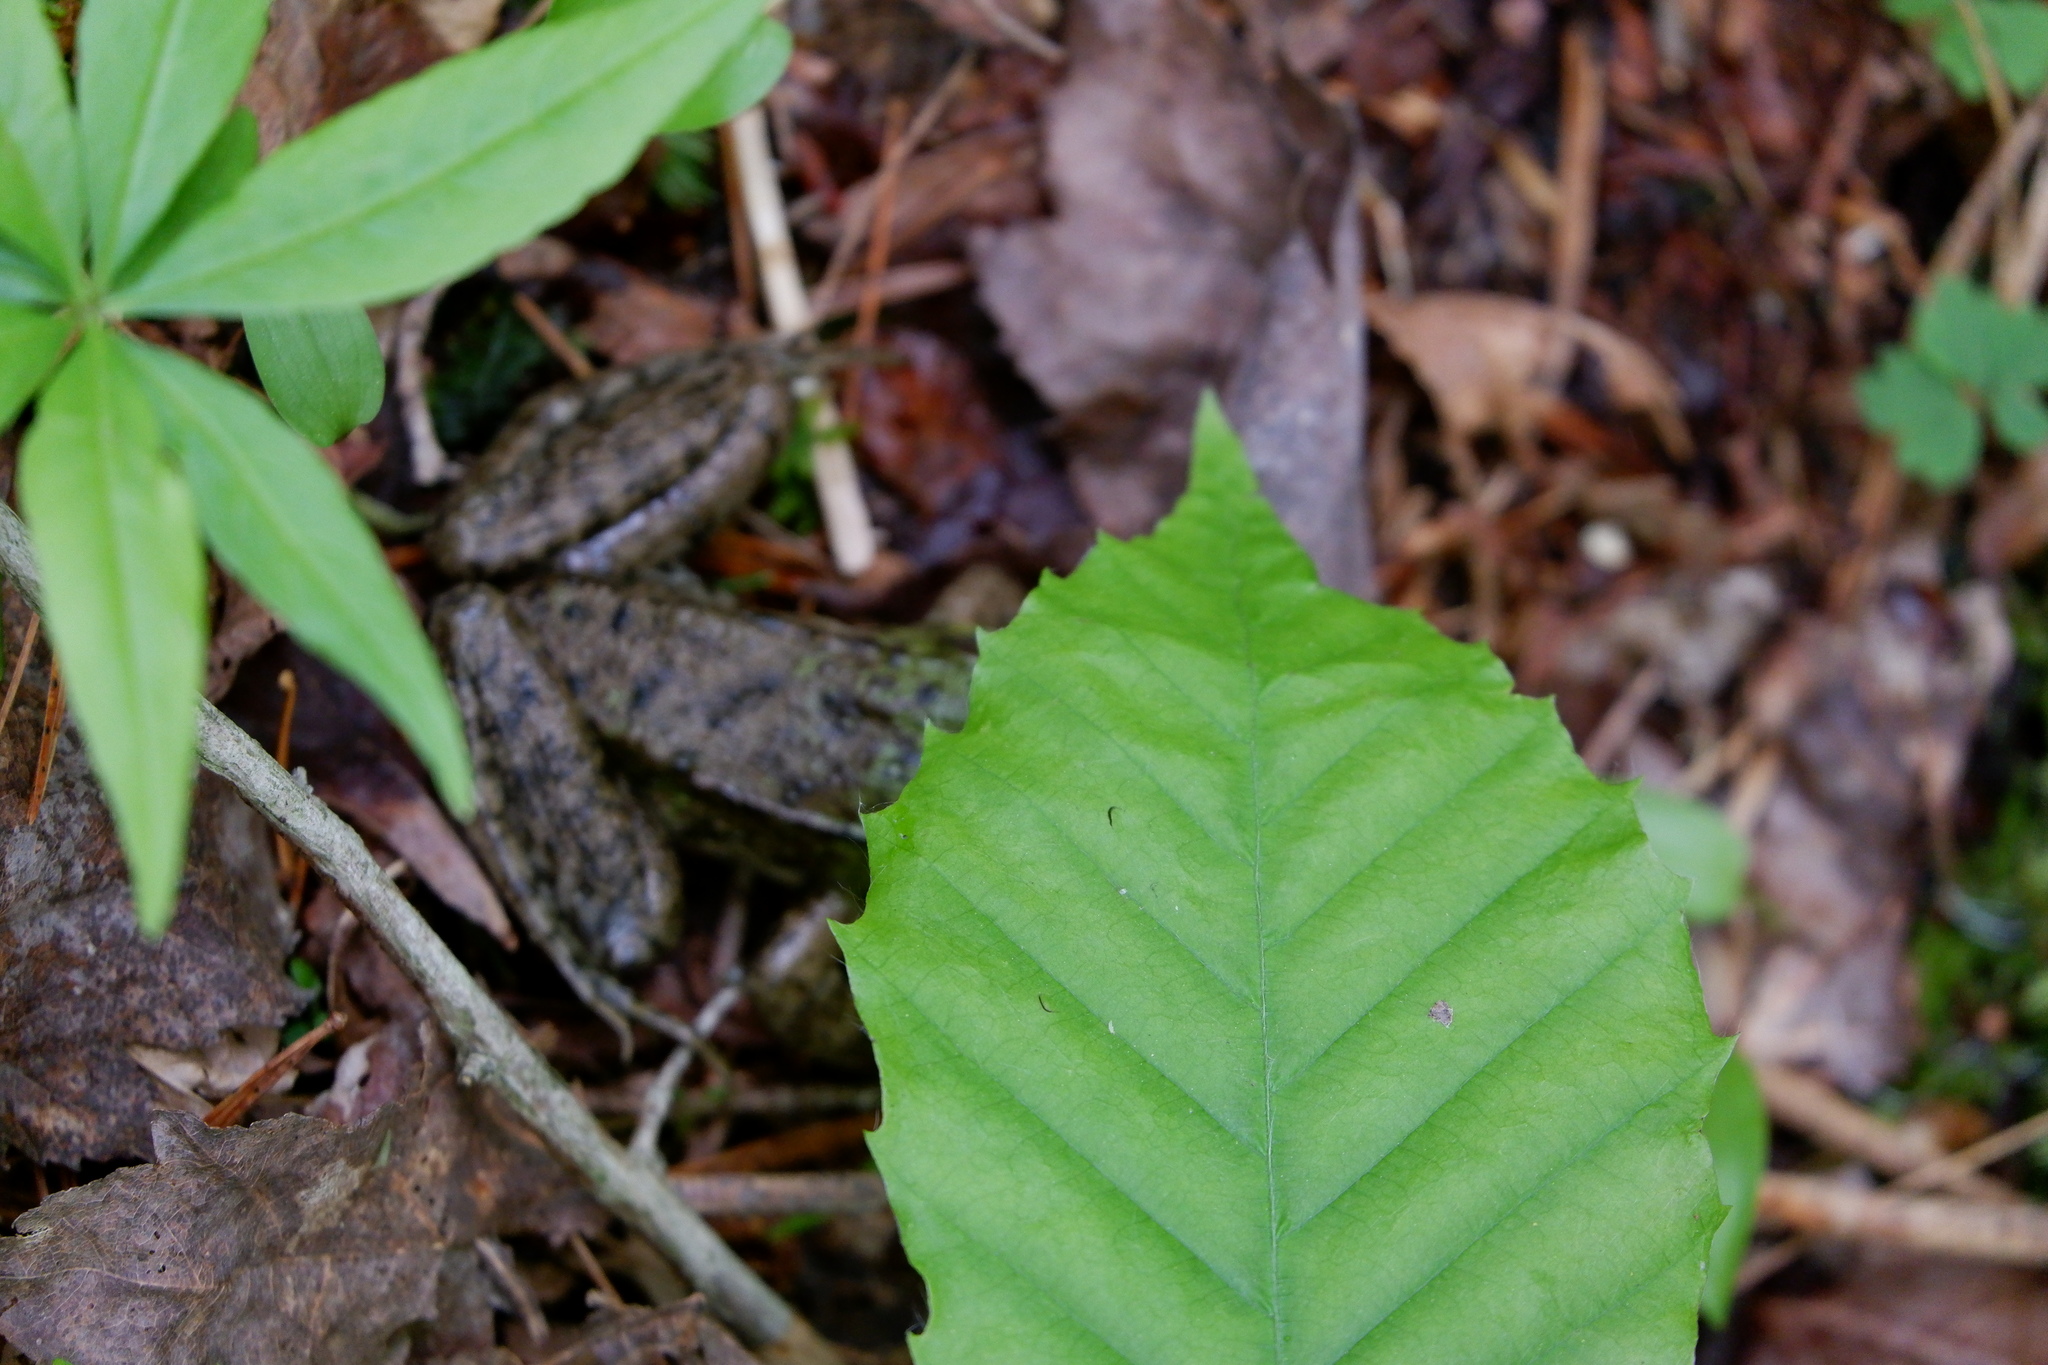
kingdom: Animalia
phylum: Chordata
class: Amphibia
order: Anura
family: Ranidae
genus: Lithobates
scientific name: Lithobates clamitans
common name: Green frog
